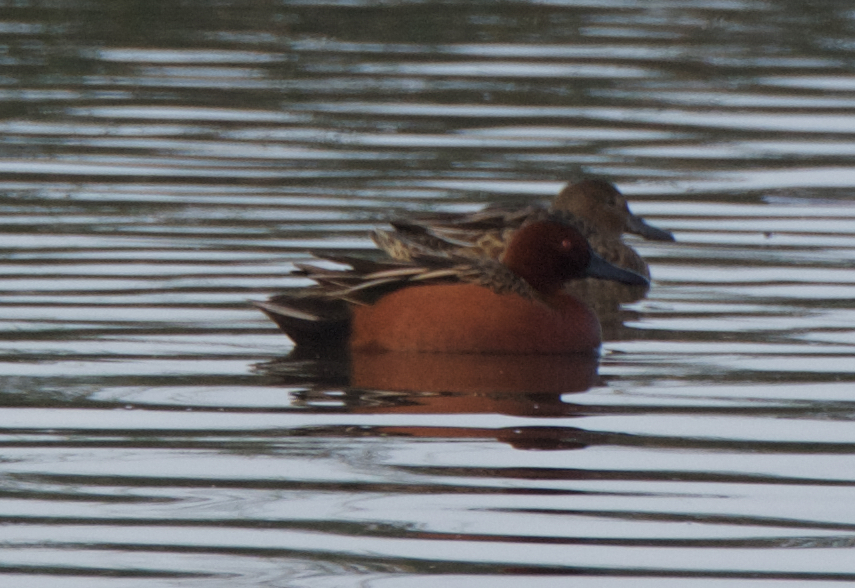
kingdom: Animalia
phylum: Chordata
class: Aves
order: Anseriformes
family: Anatidae
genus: Spatula
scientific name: Spatula cyanoptera
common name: Cinnamon teal
